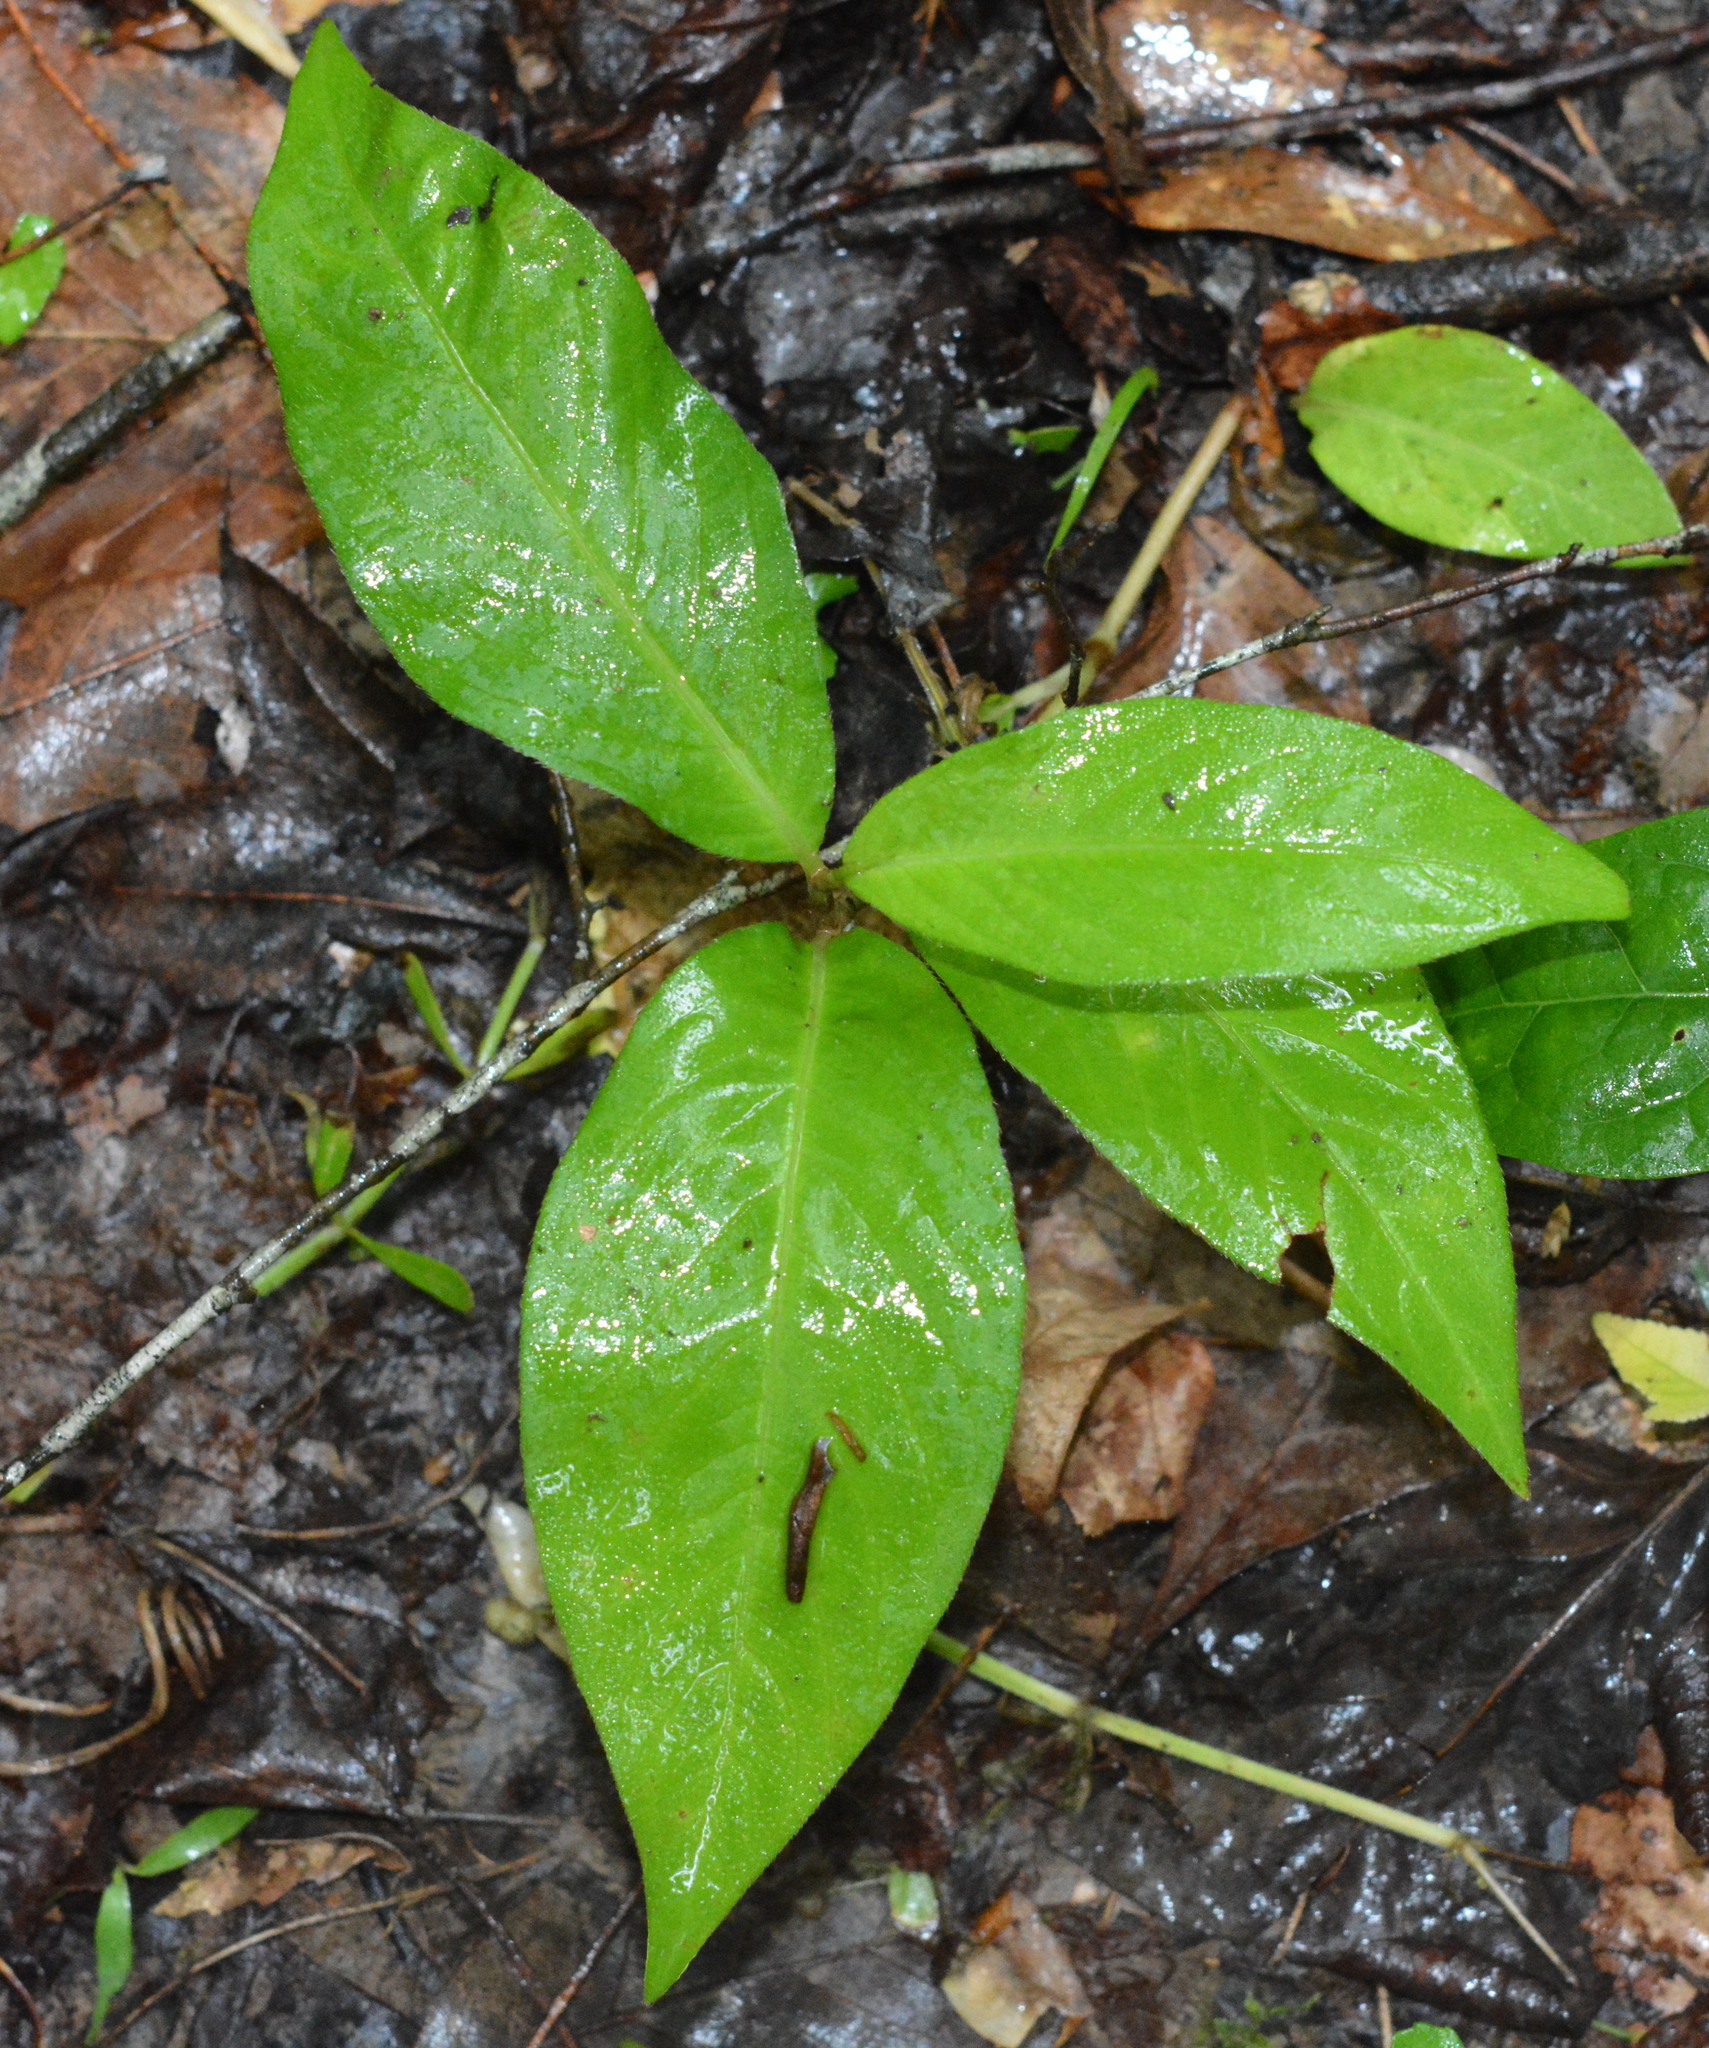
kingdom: Plantae
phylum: Tracheophyta
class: Magnoliopsida
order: Caryophyllales
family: Polygonaceae
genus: Persicaria
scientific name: Persicaria virginiana
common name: Jumpseed
